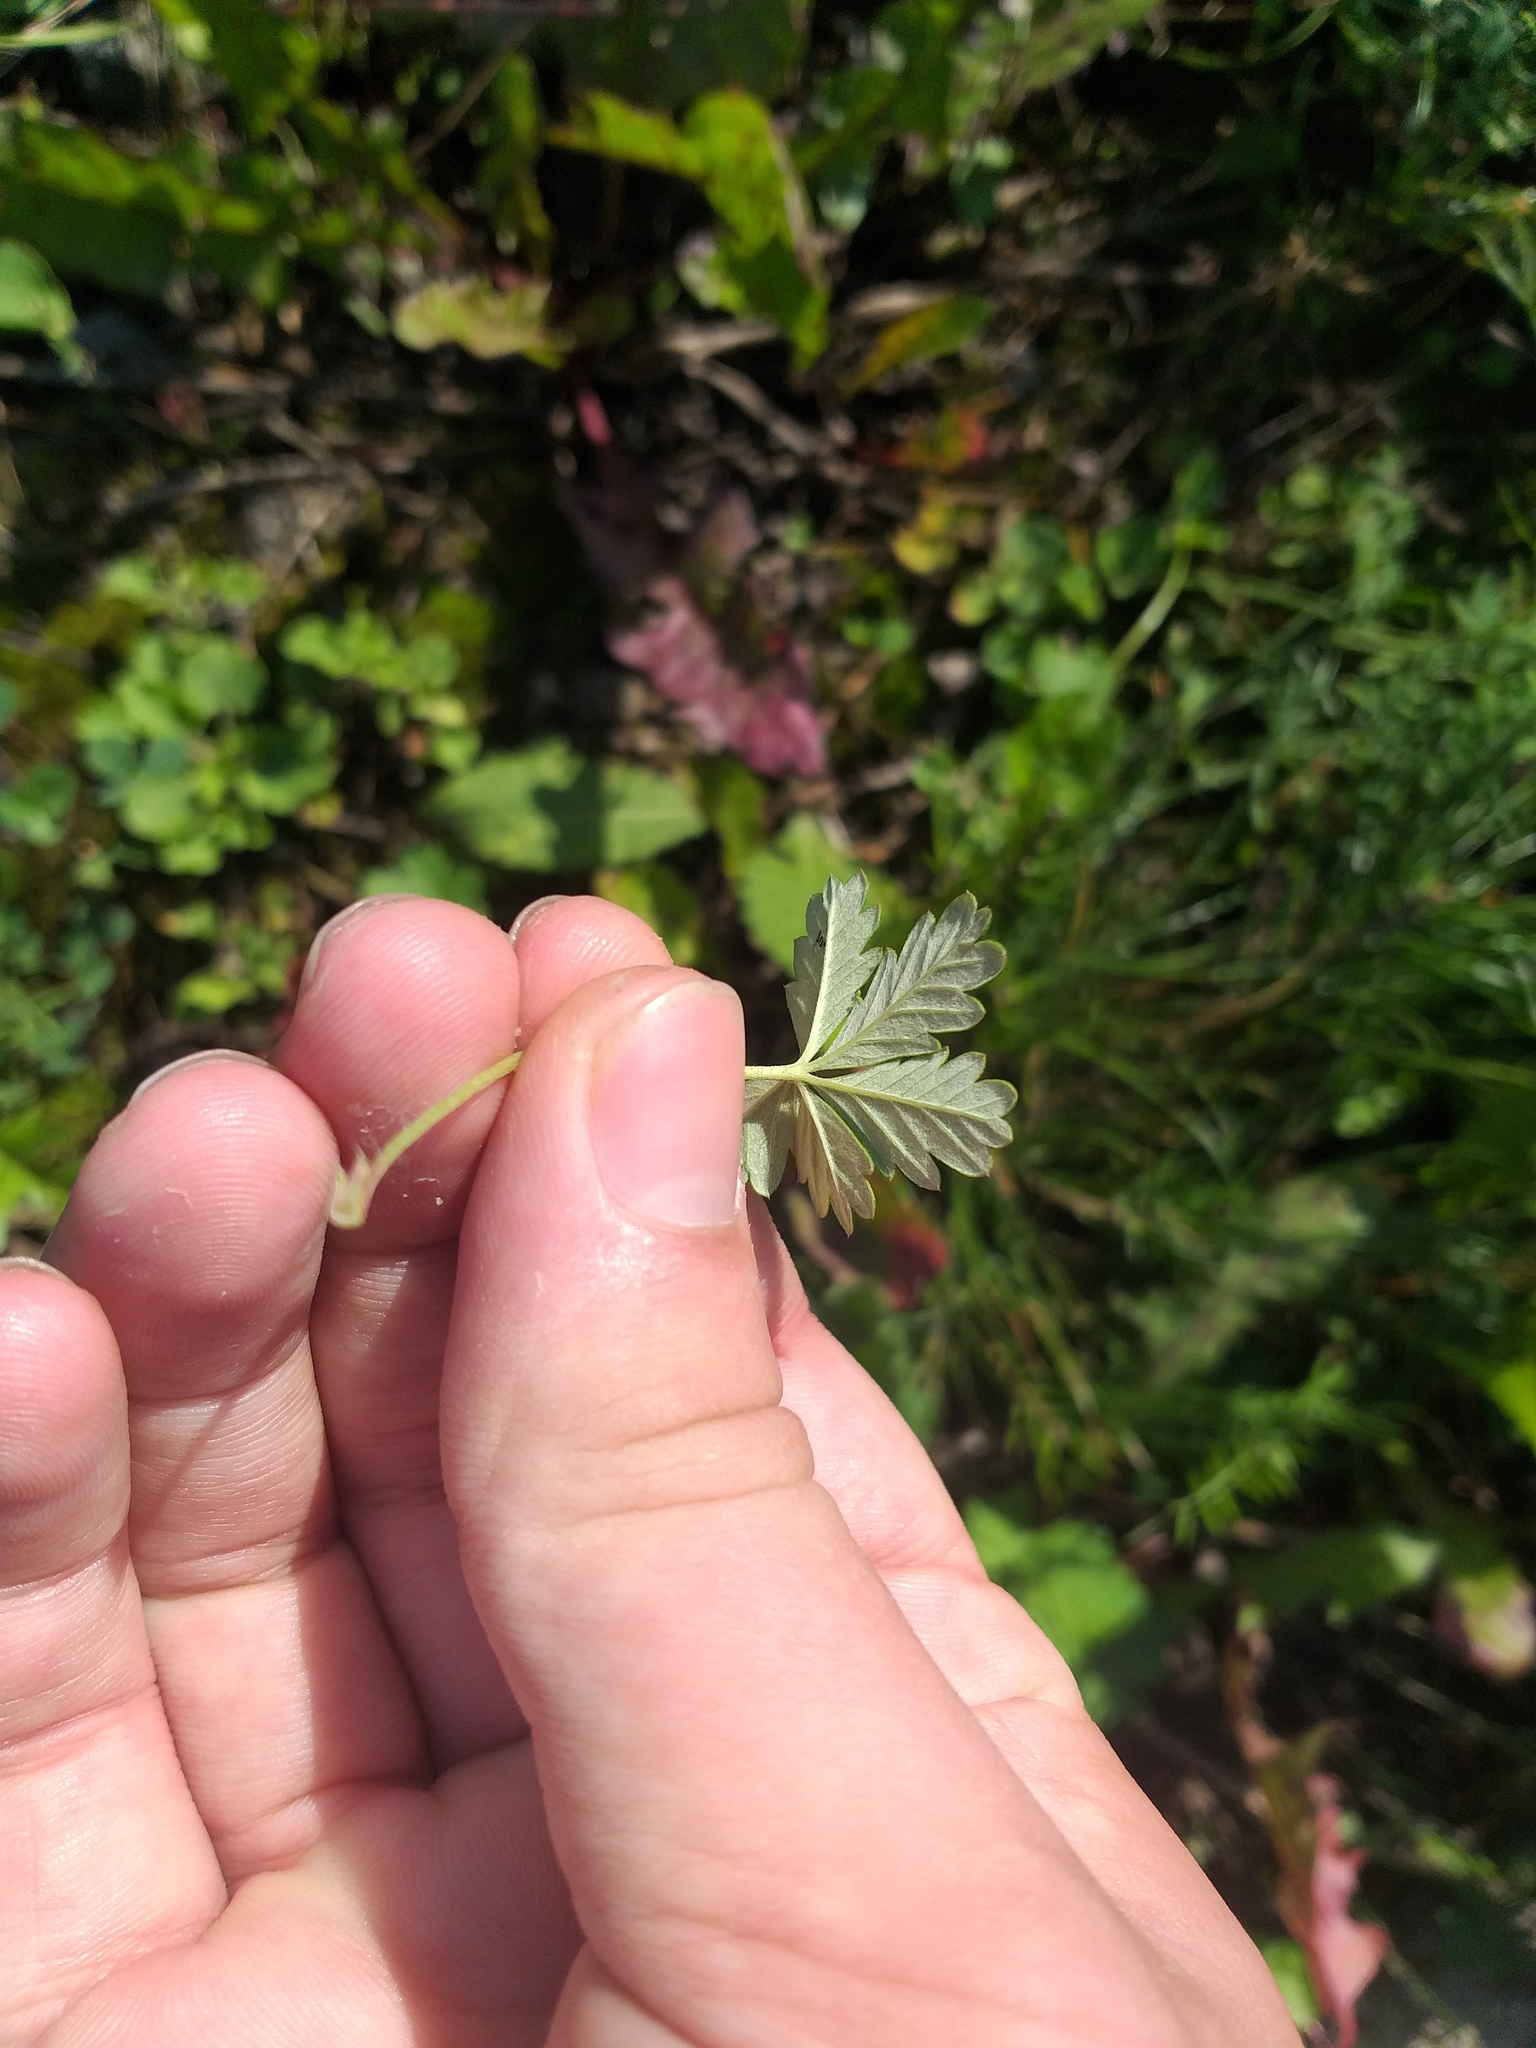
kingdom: Plantae
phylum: Tracheophyta
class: Magnoliopsida
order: Rosales
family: Rosaceae
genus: Potentilla
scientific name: Potentilla argentea
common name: Hoary cinquefoil
